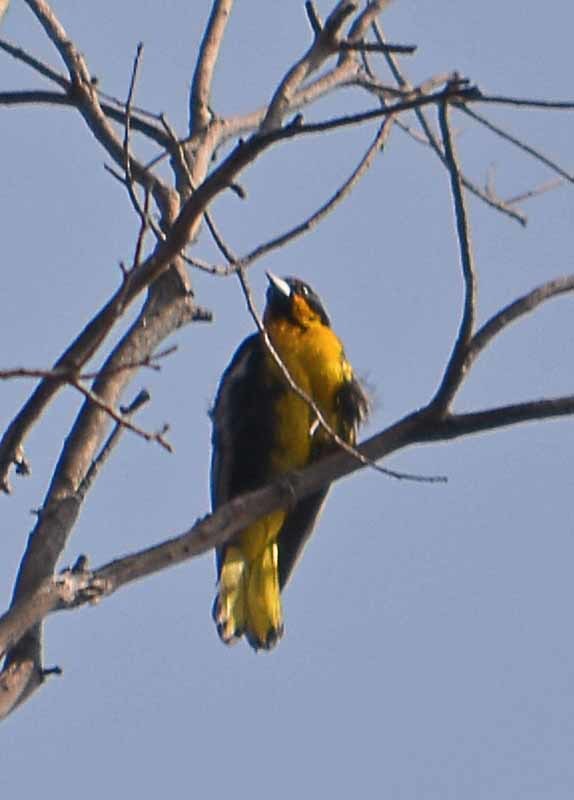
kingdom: Animalia
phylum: Chordata
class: Aves
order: Passeriformes
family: Icteridae
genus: Icterus
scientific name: Icterus abeillei
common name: Black-backed oriole
